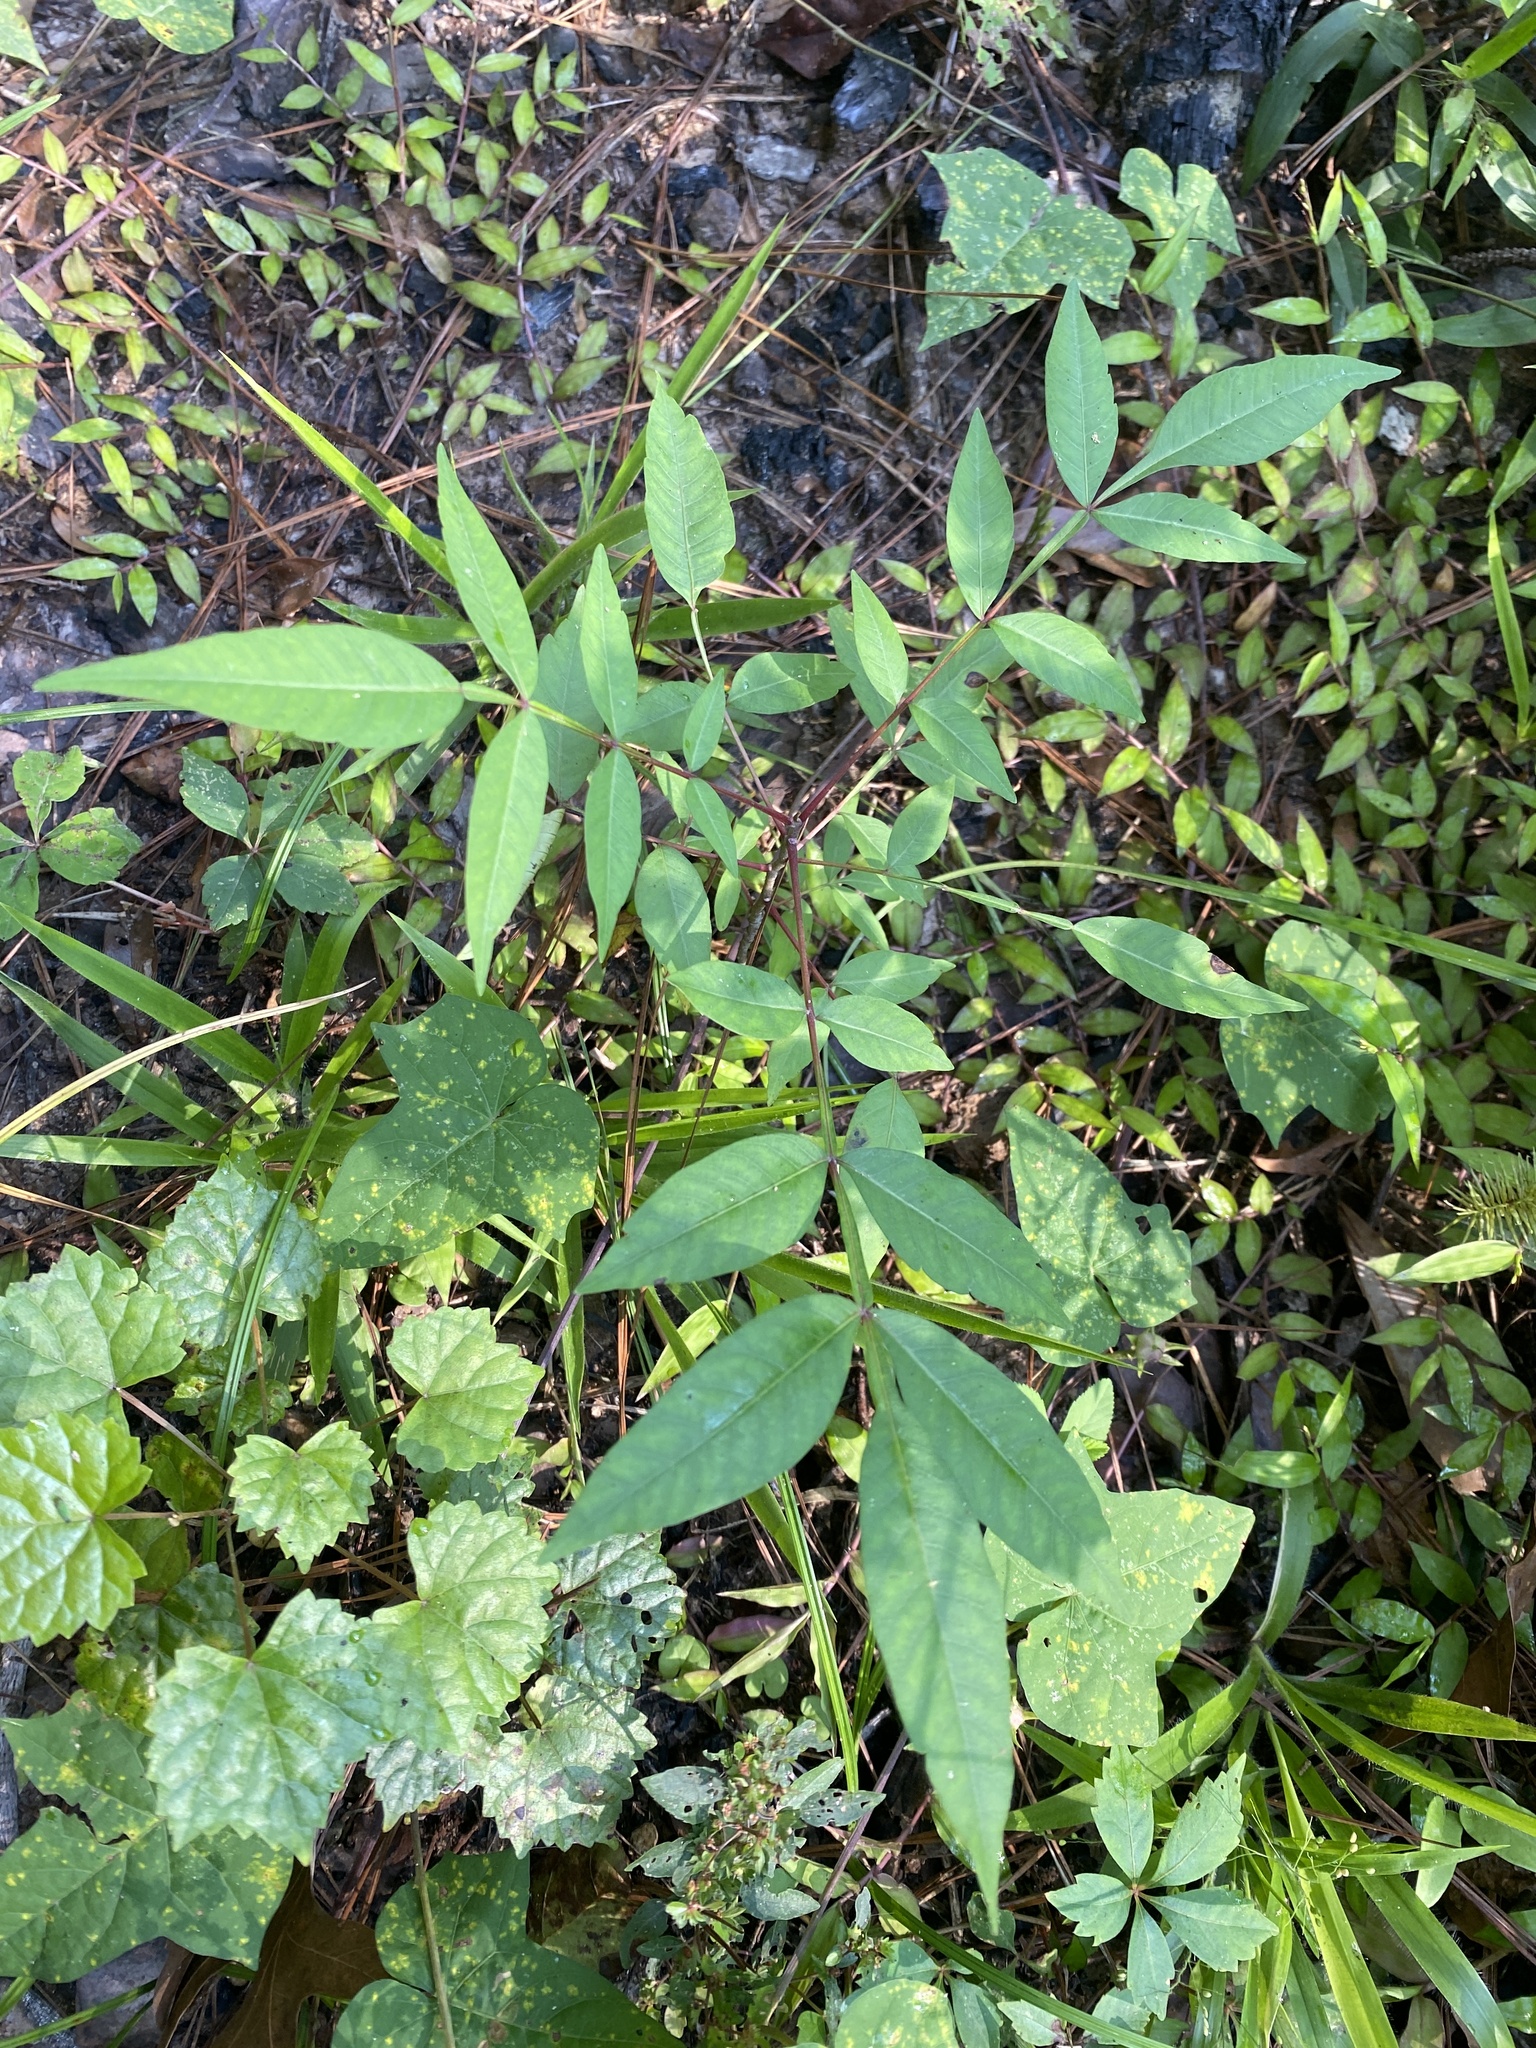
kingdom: Plantae
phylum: Tracheophyta
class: Magnoliopsida
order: Sapindales
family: Anacardiaceae
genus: Rhus
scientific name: Rhus copallina
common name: Shining sumac
